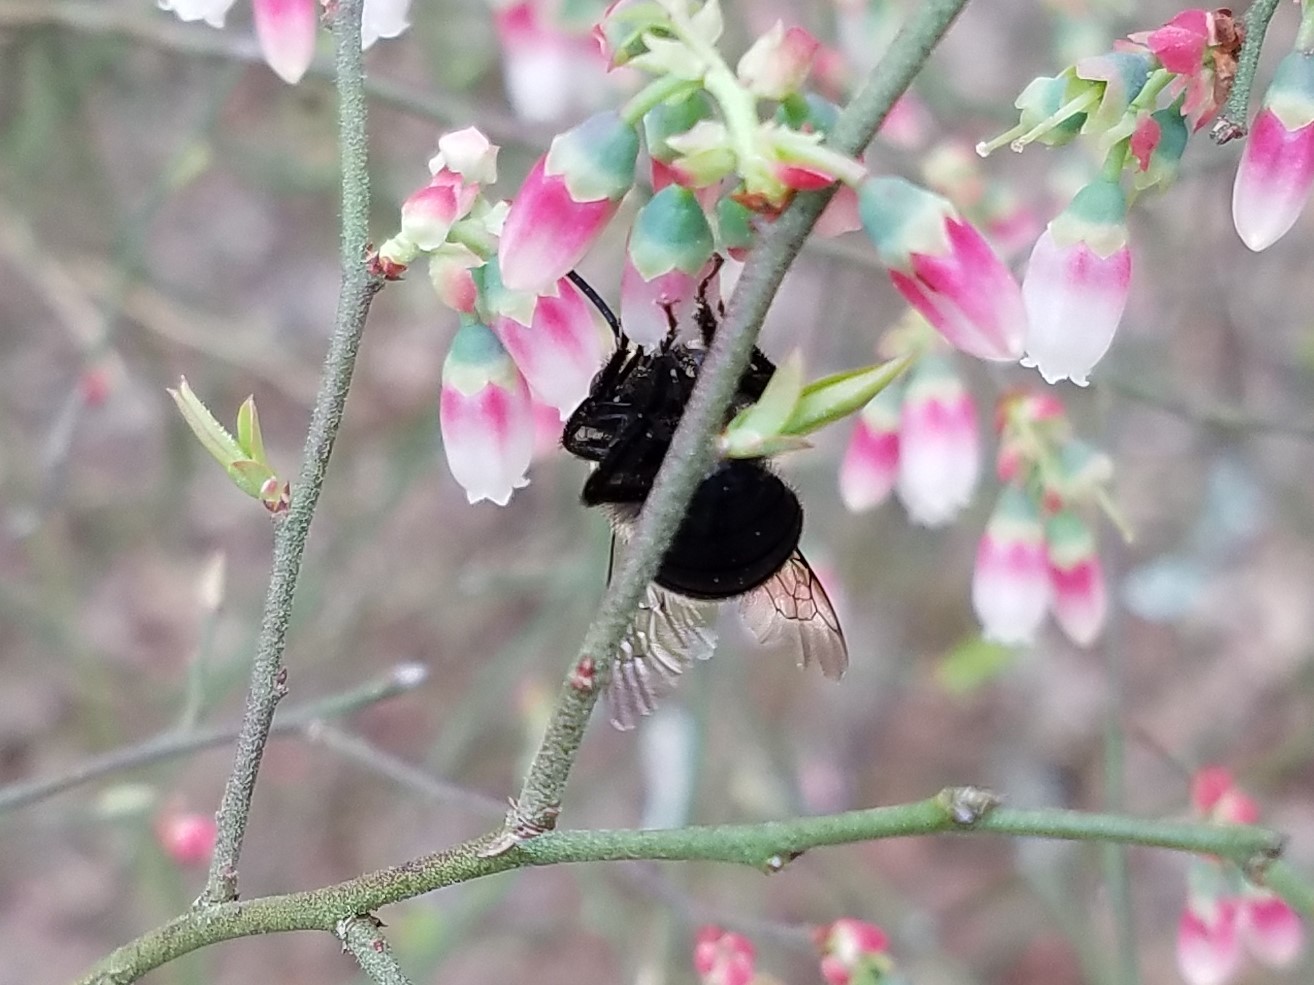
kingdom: Animalia
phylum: Arthropoda
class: Insecta
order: Hymenoptera
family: Apidae
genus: Habropoda
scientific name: Habropoda laboriosa
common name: Southeastern blueberry bee
